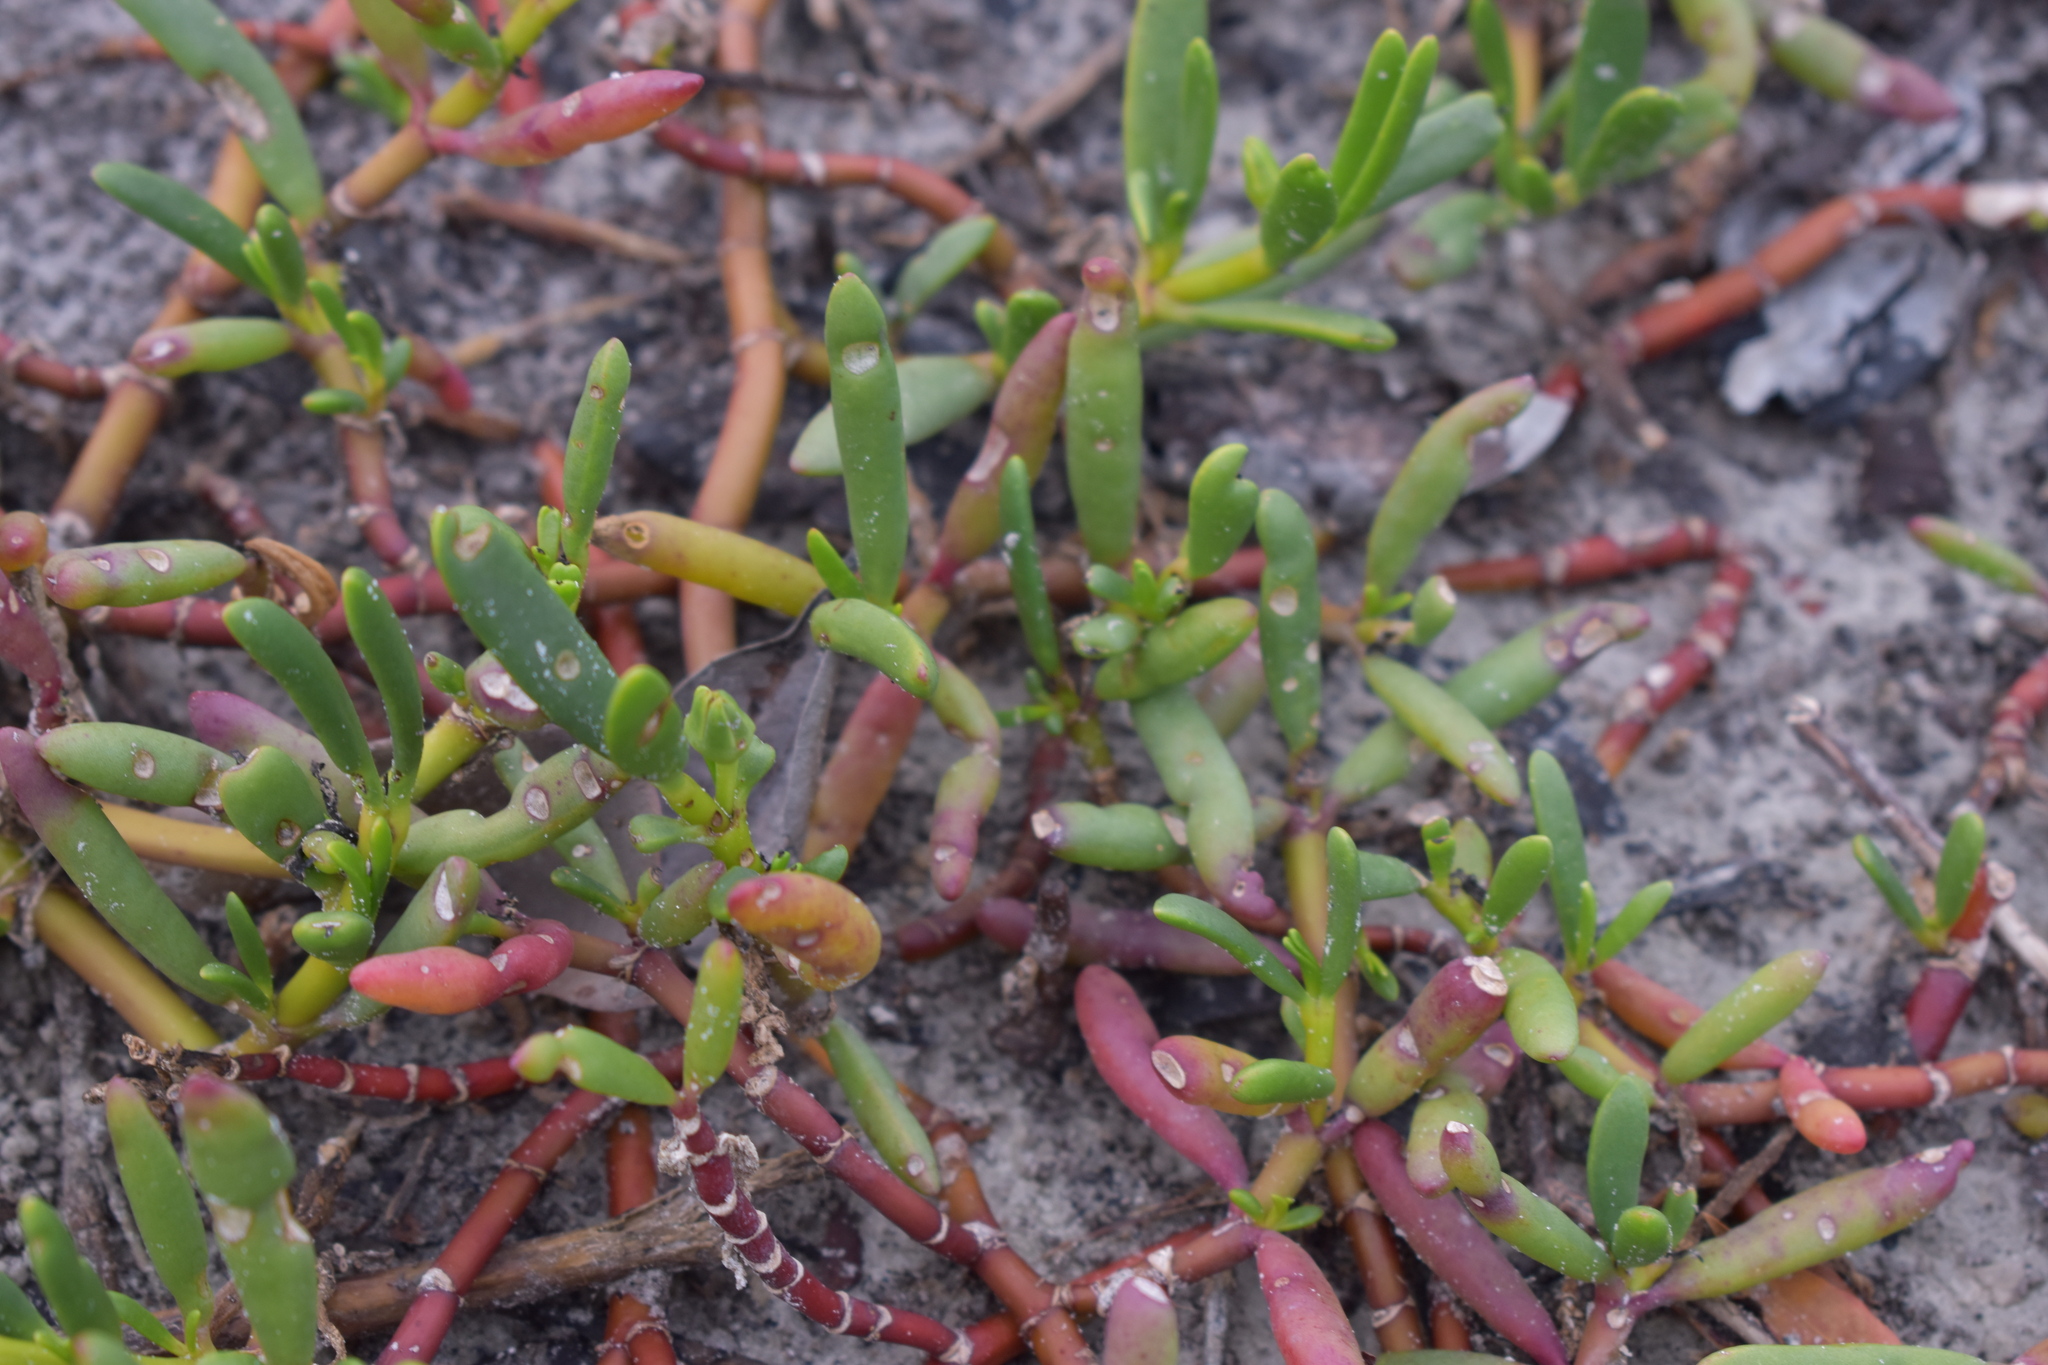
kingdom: Plantae
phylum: Tracheophyta
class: Magnoliopsida
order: Caryophyllales
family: Aizoaceae
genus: Sesuvium
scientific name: Sesuvium portulacastrum
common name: Sea-purslane
